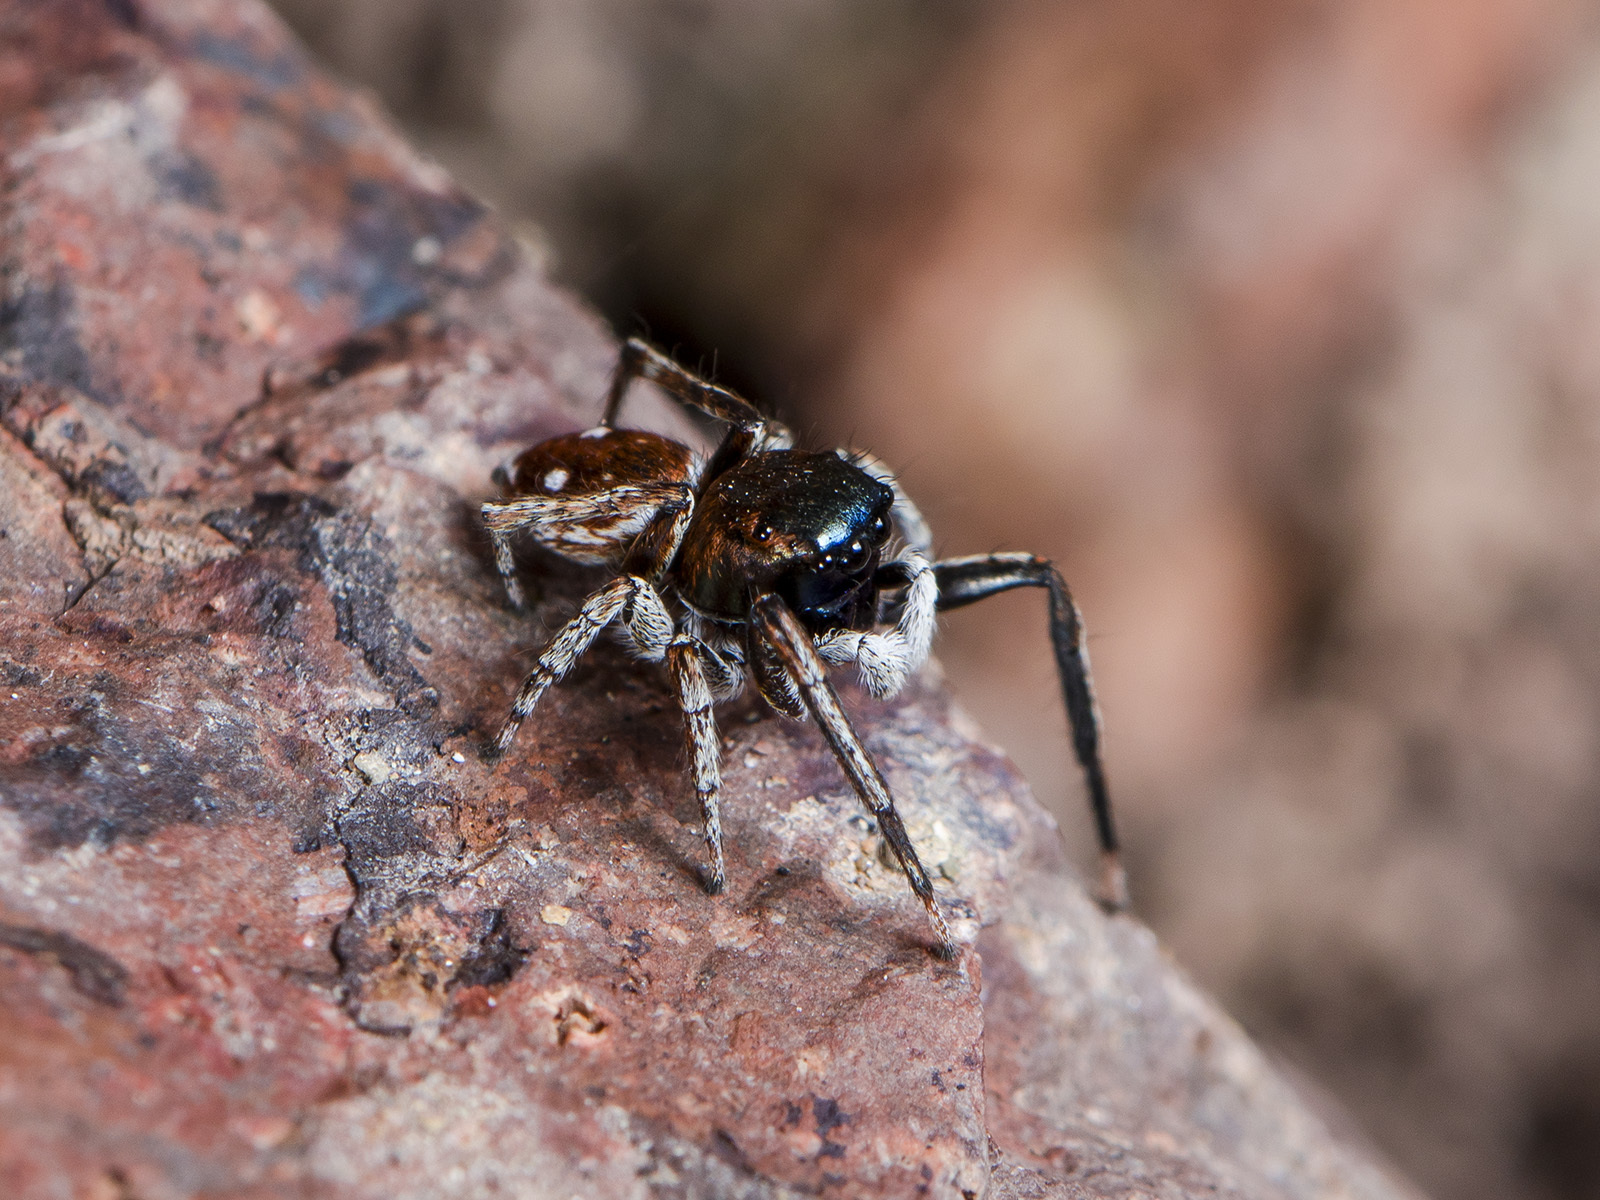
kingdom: Animalia
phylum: Arthropoda
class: Arachnida
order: Araneae
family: Salticidae
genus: Attulus
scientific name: Attulus mirandus
